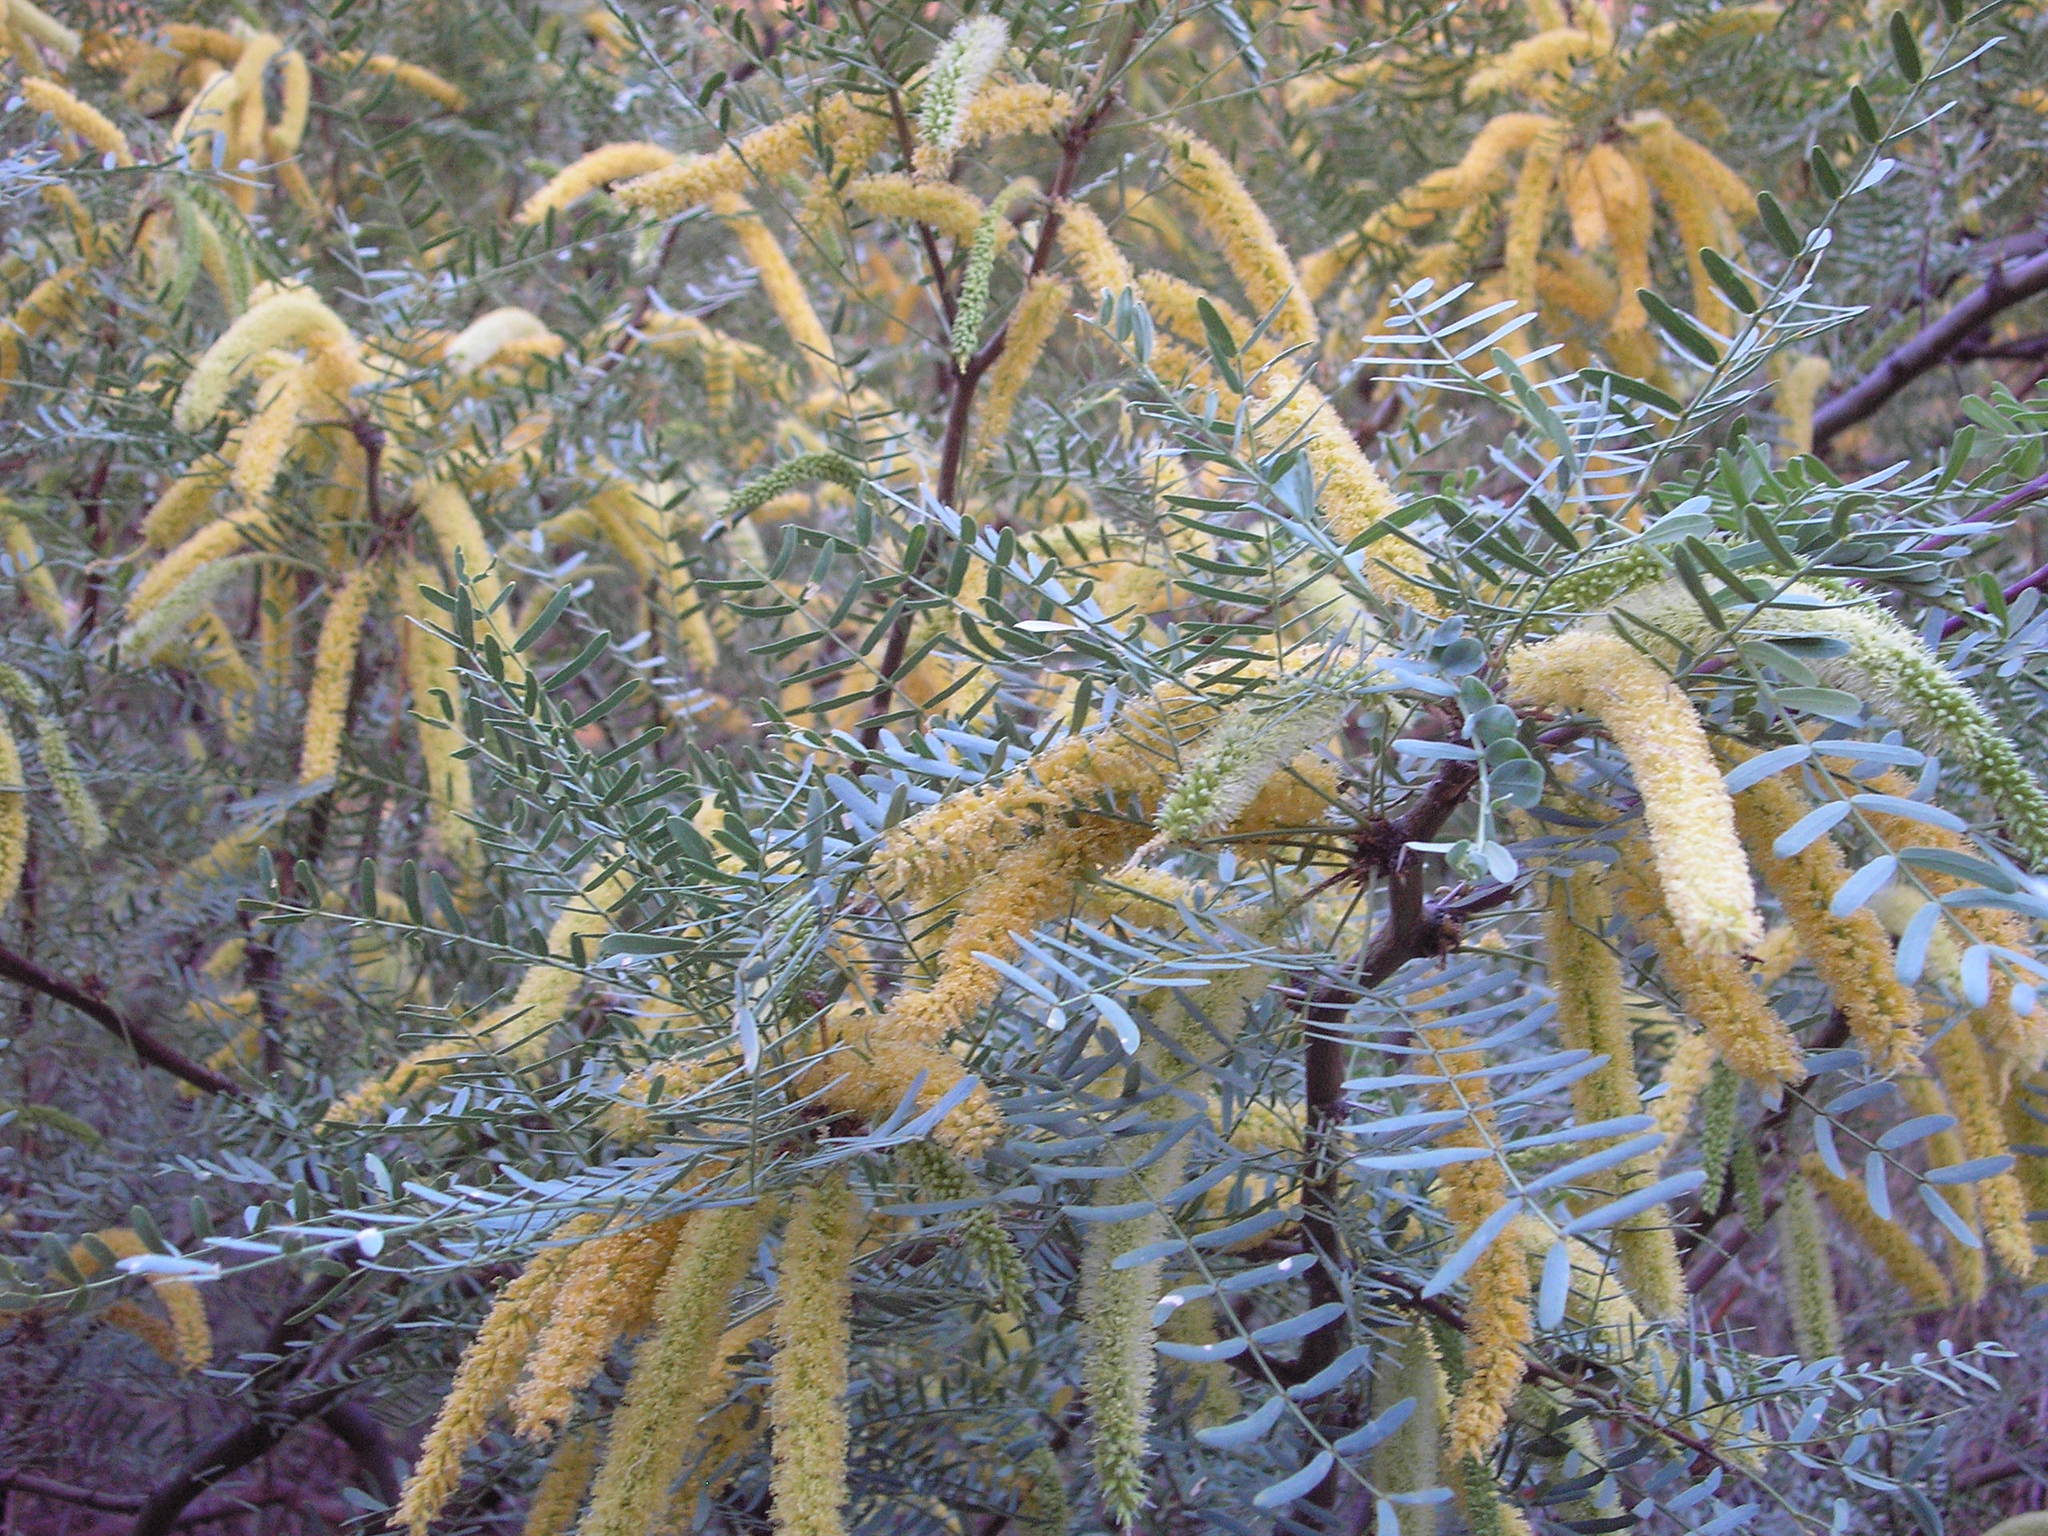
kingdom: Plantae
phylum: Tracheophyta
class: Magnoliopsida
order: Fabales
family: Fabaceae
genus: Prosopis
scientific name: Prosopis glandulosa
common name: Honey mesquite
